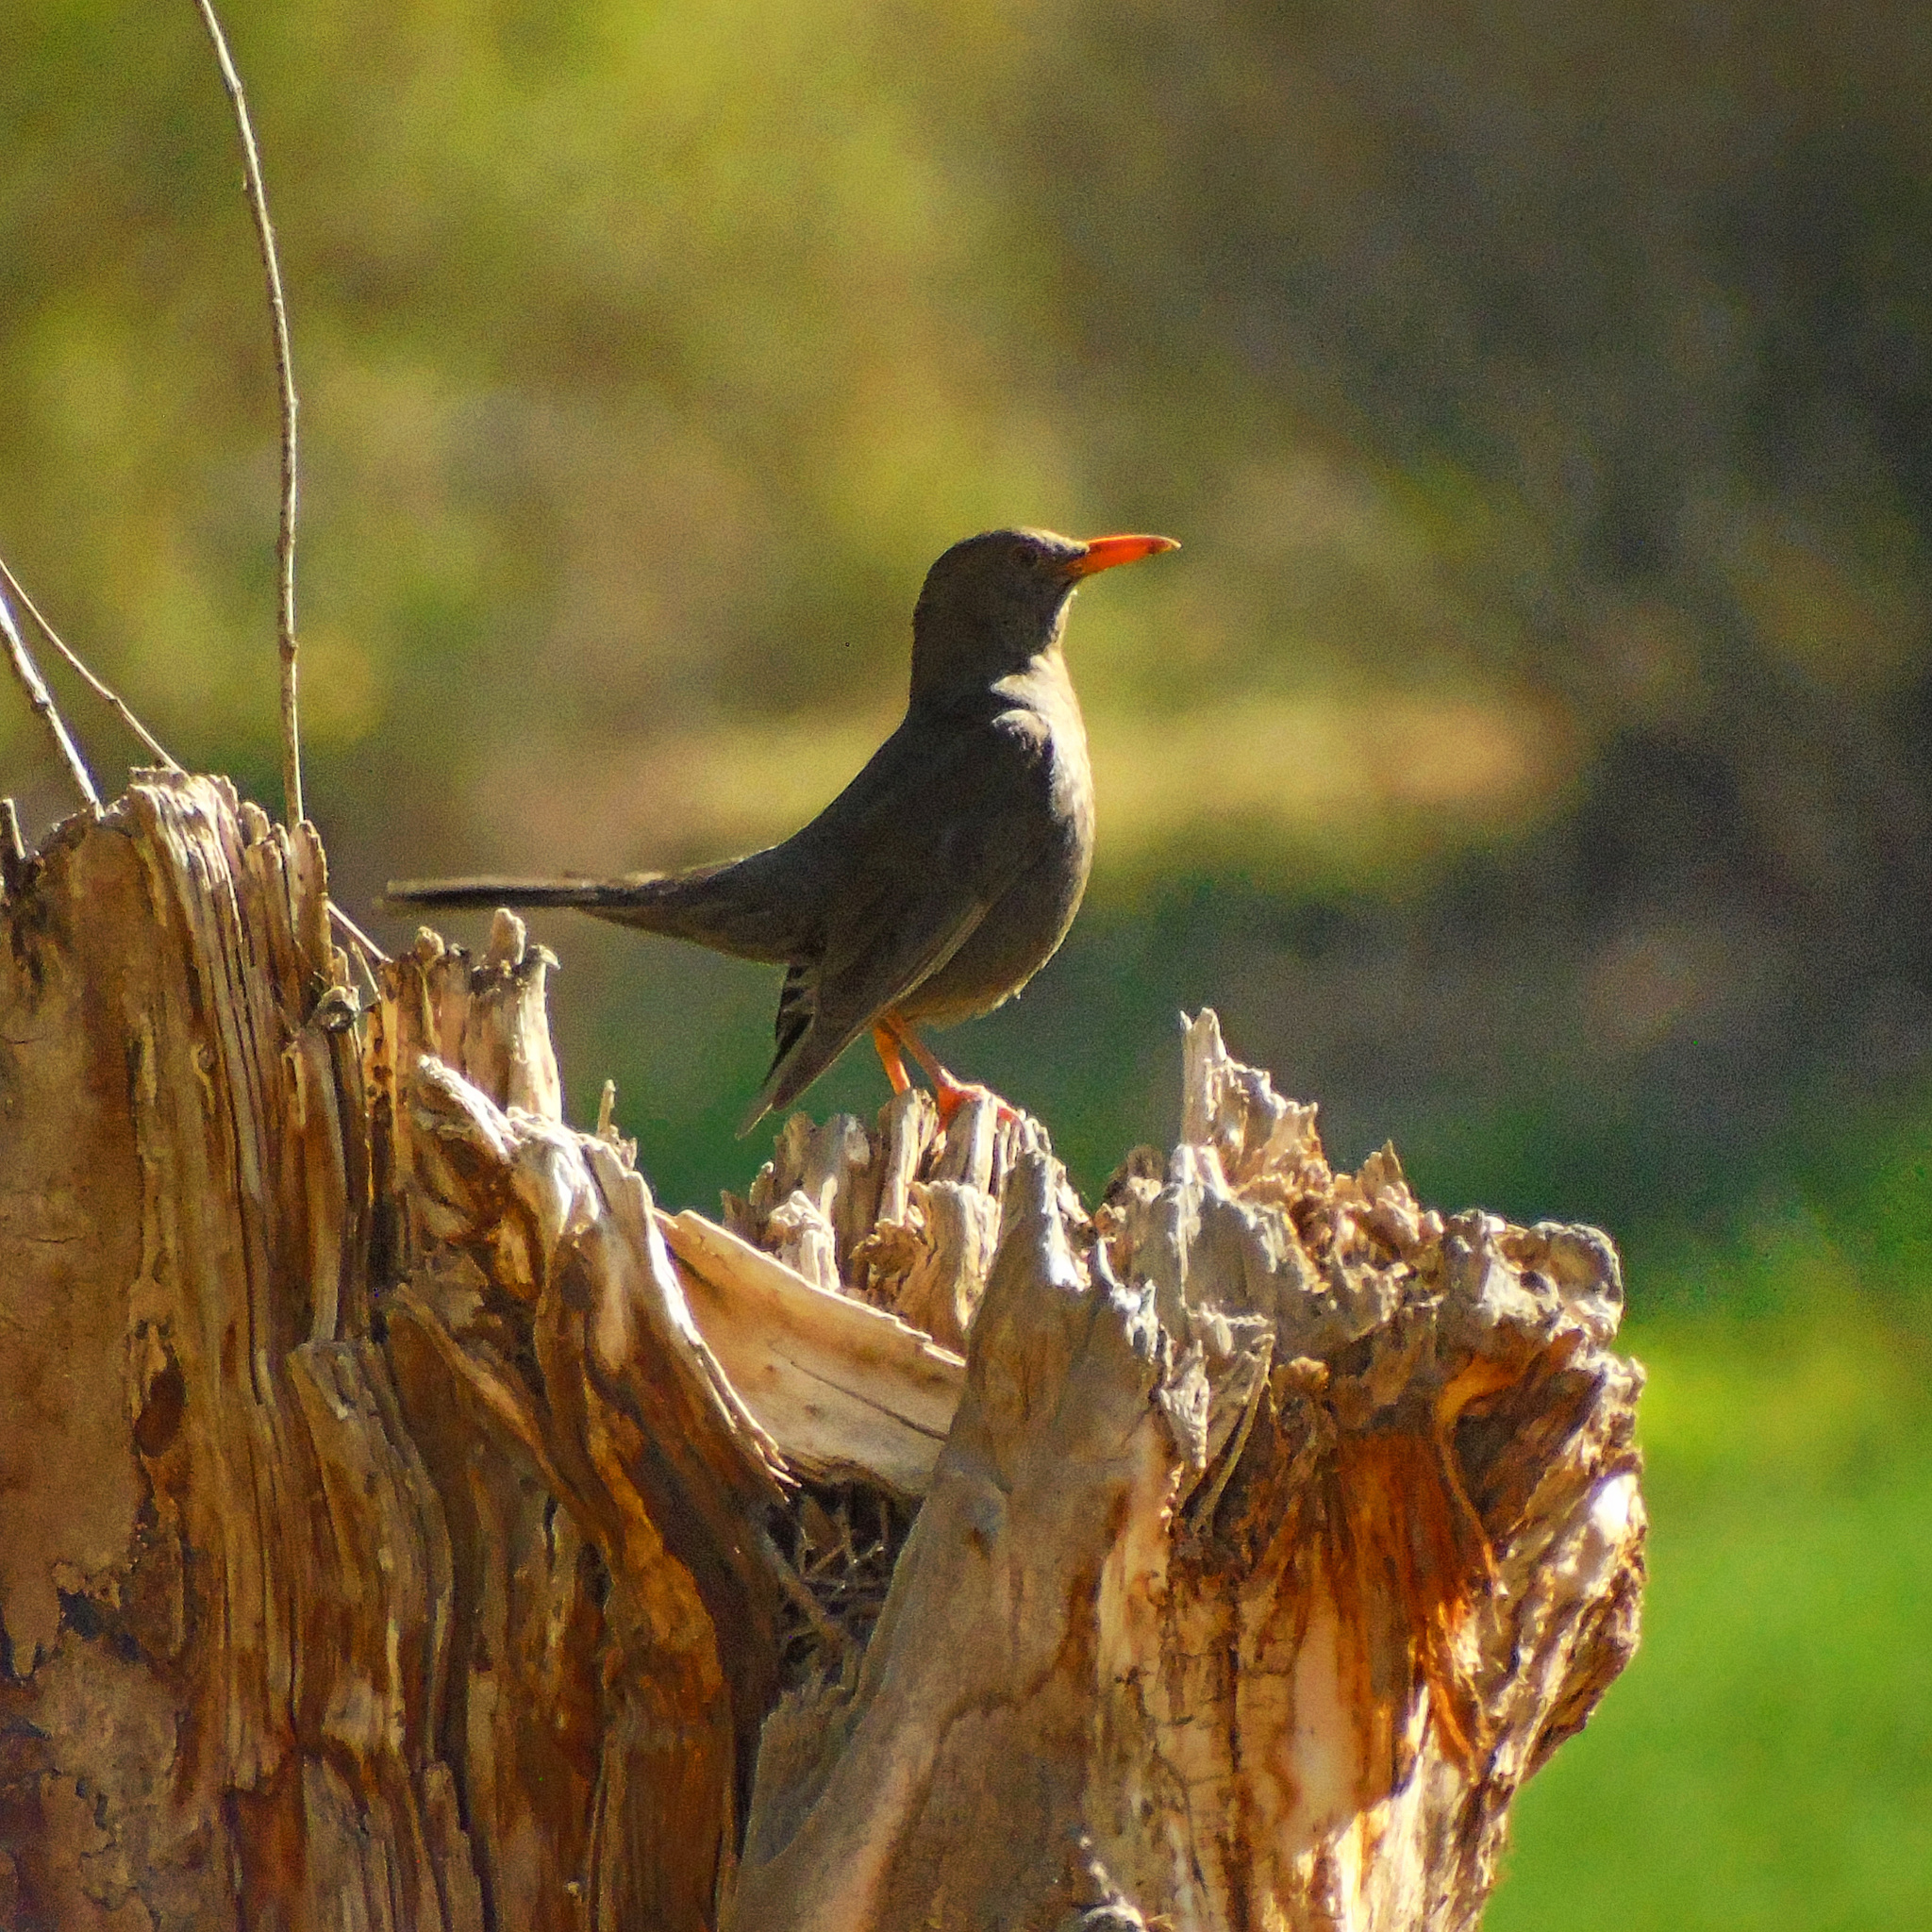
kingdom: Animalia
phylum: Chordata
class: Aves
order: Passeriformes
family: Turdidae
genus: Turdus
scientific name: Turdus chiguanco
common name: Chiguanco thrush
